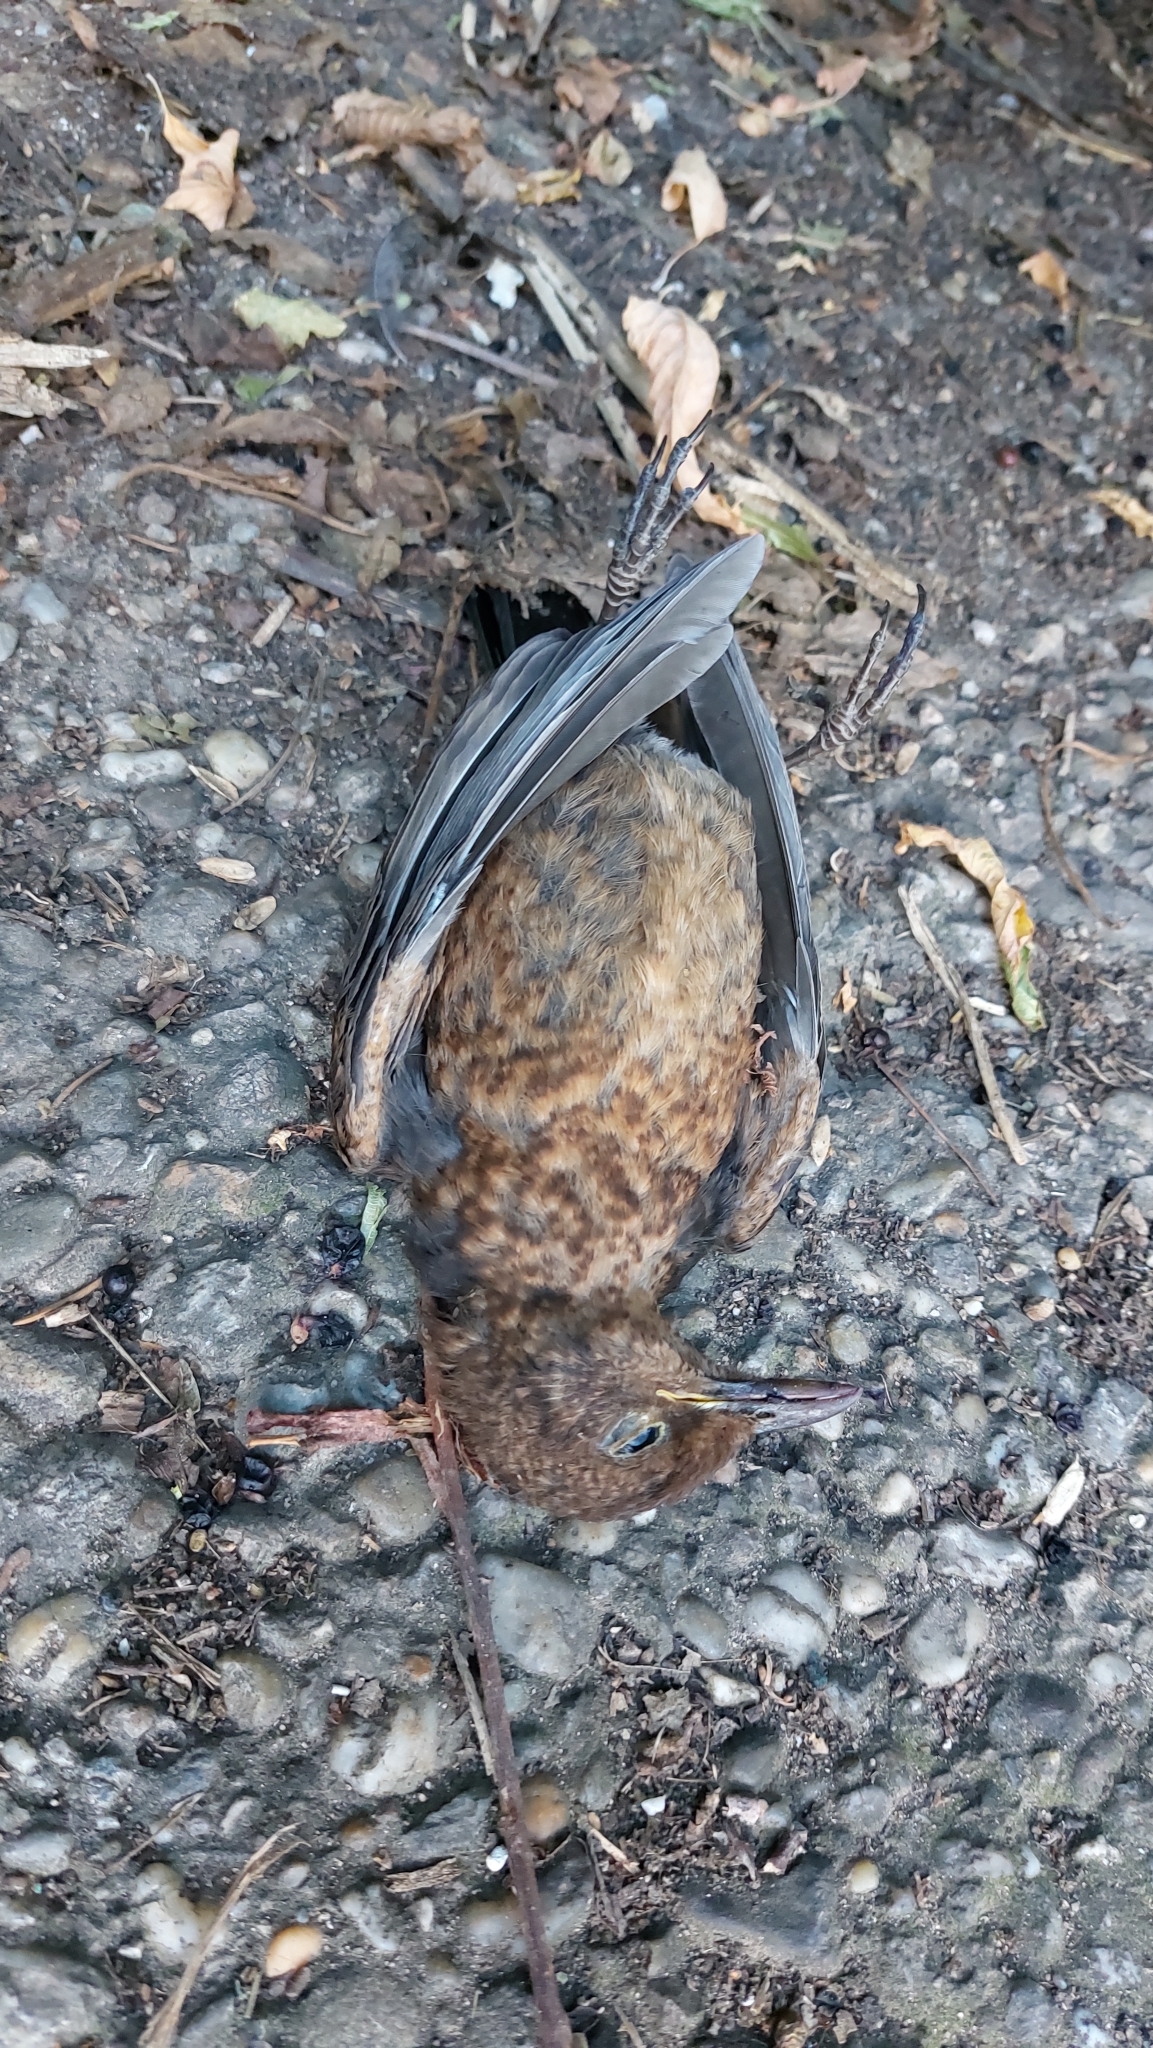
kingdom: Animalia
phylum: Chordata
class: Aves
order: Passeriformes
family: Turdidae
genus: Turdus
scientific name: Turdus merula
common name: Common blackbird
